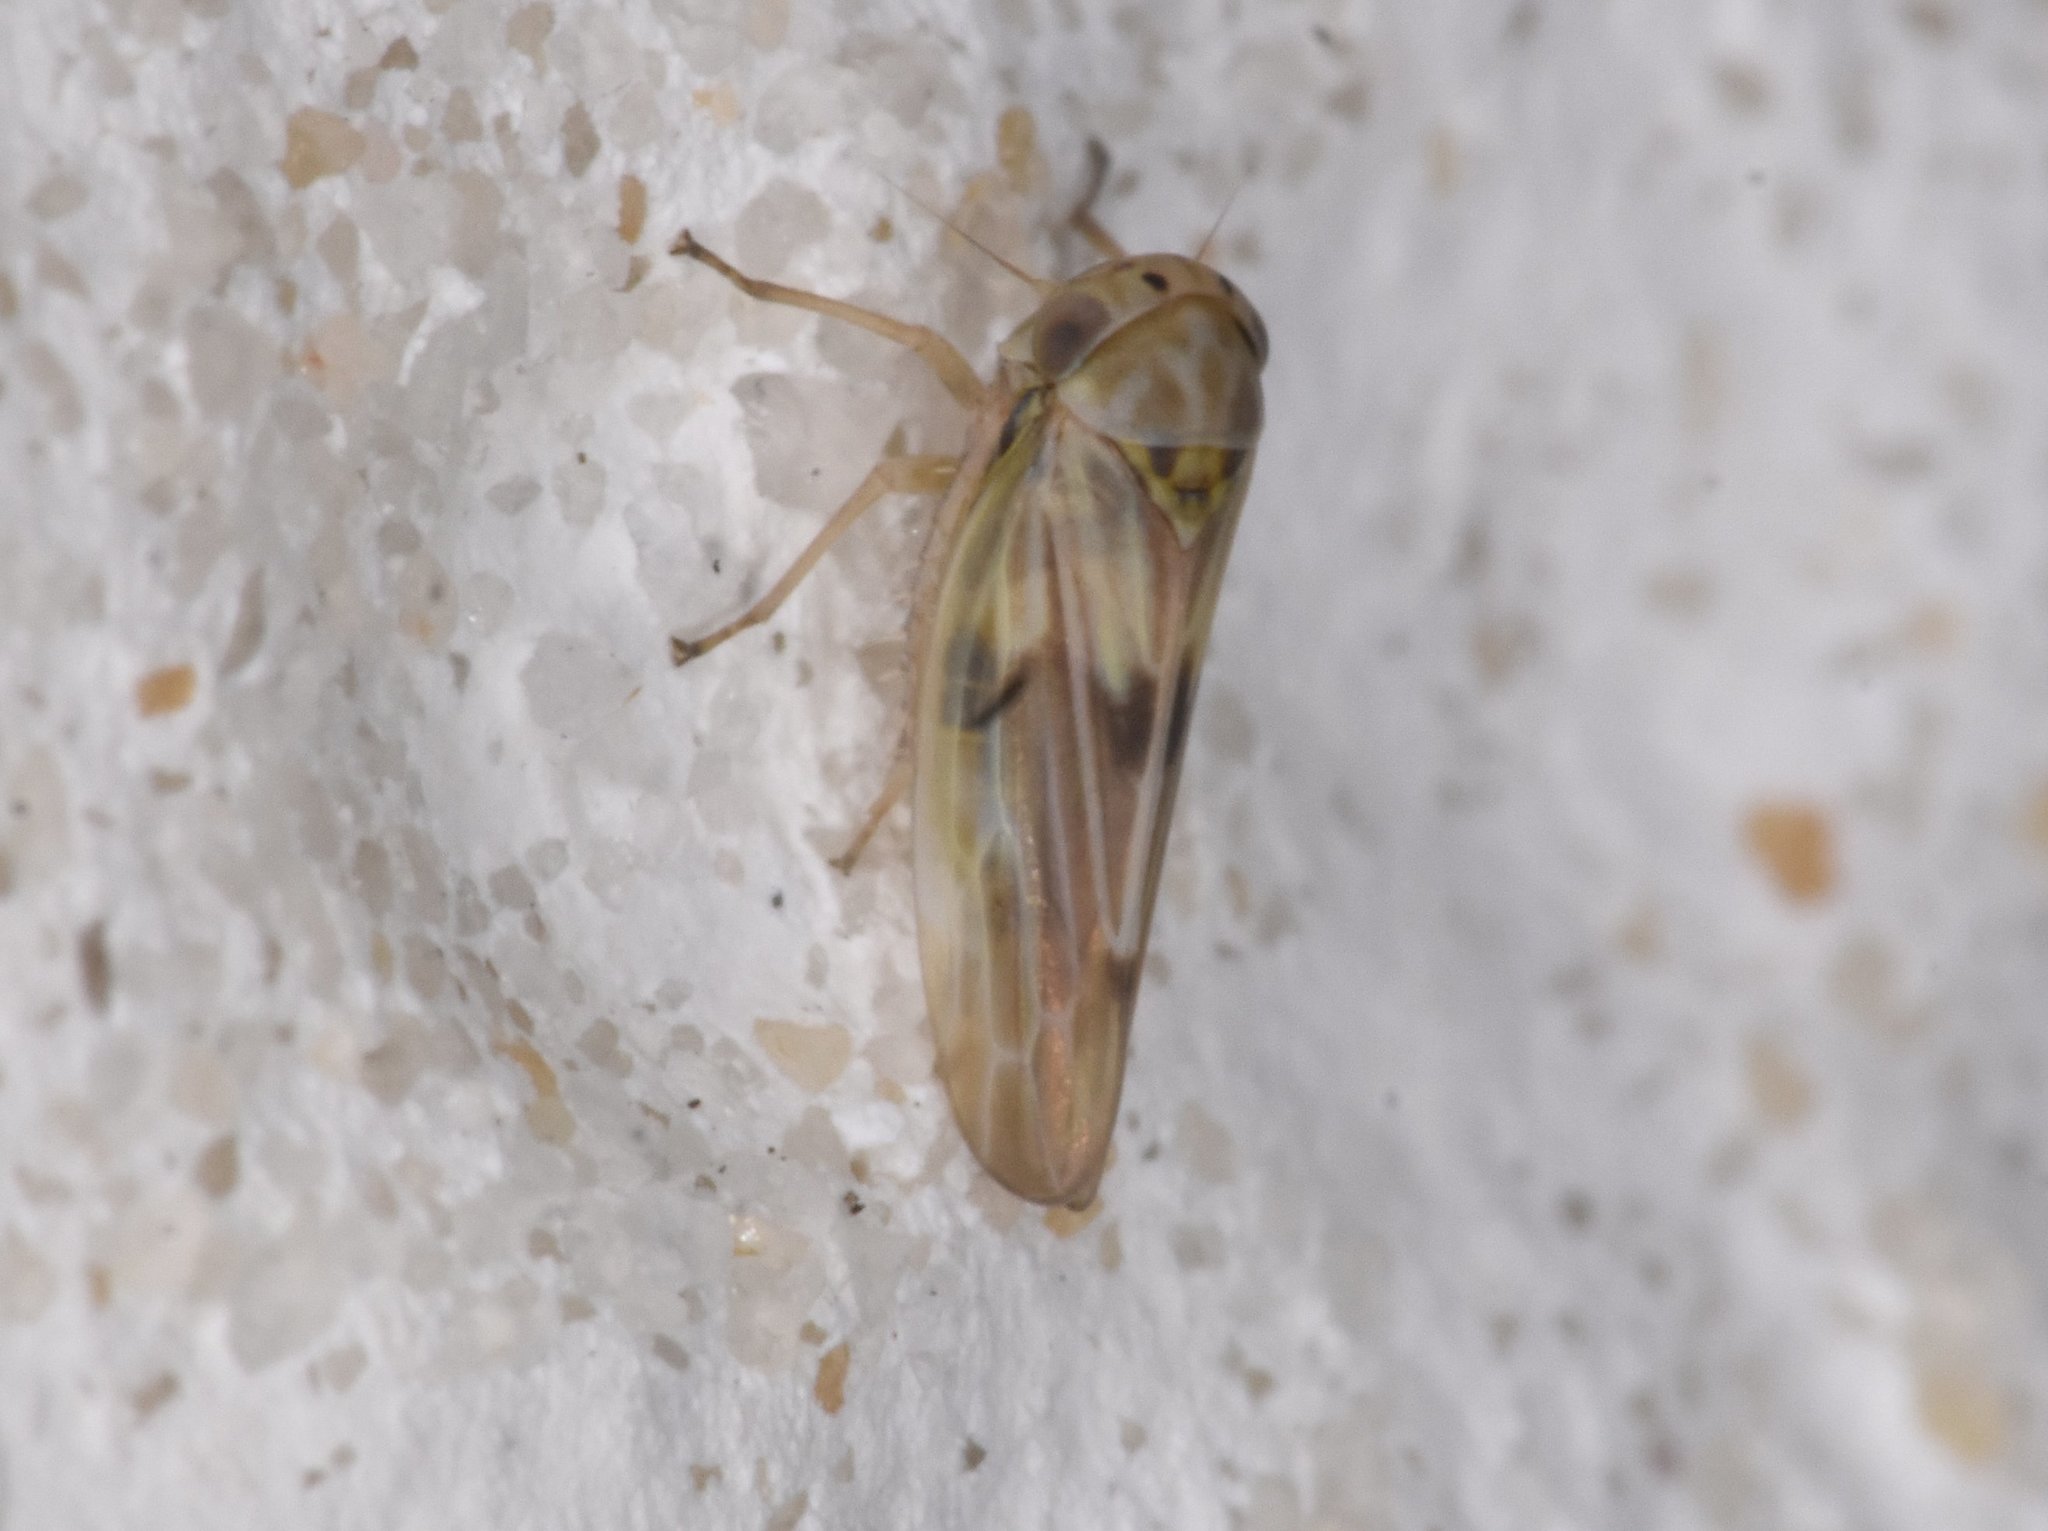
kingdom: Animalia
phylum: Arthropoda
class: Insecta
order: Hemiptera
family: Cicadellidae
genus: Agallia
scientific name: Agallia albidula
